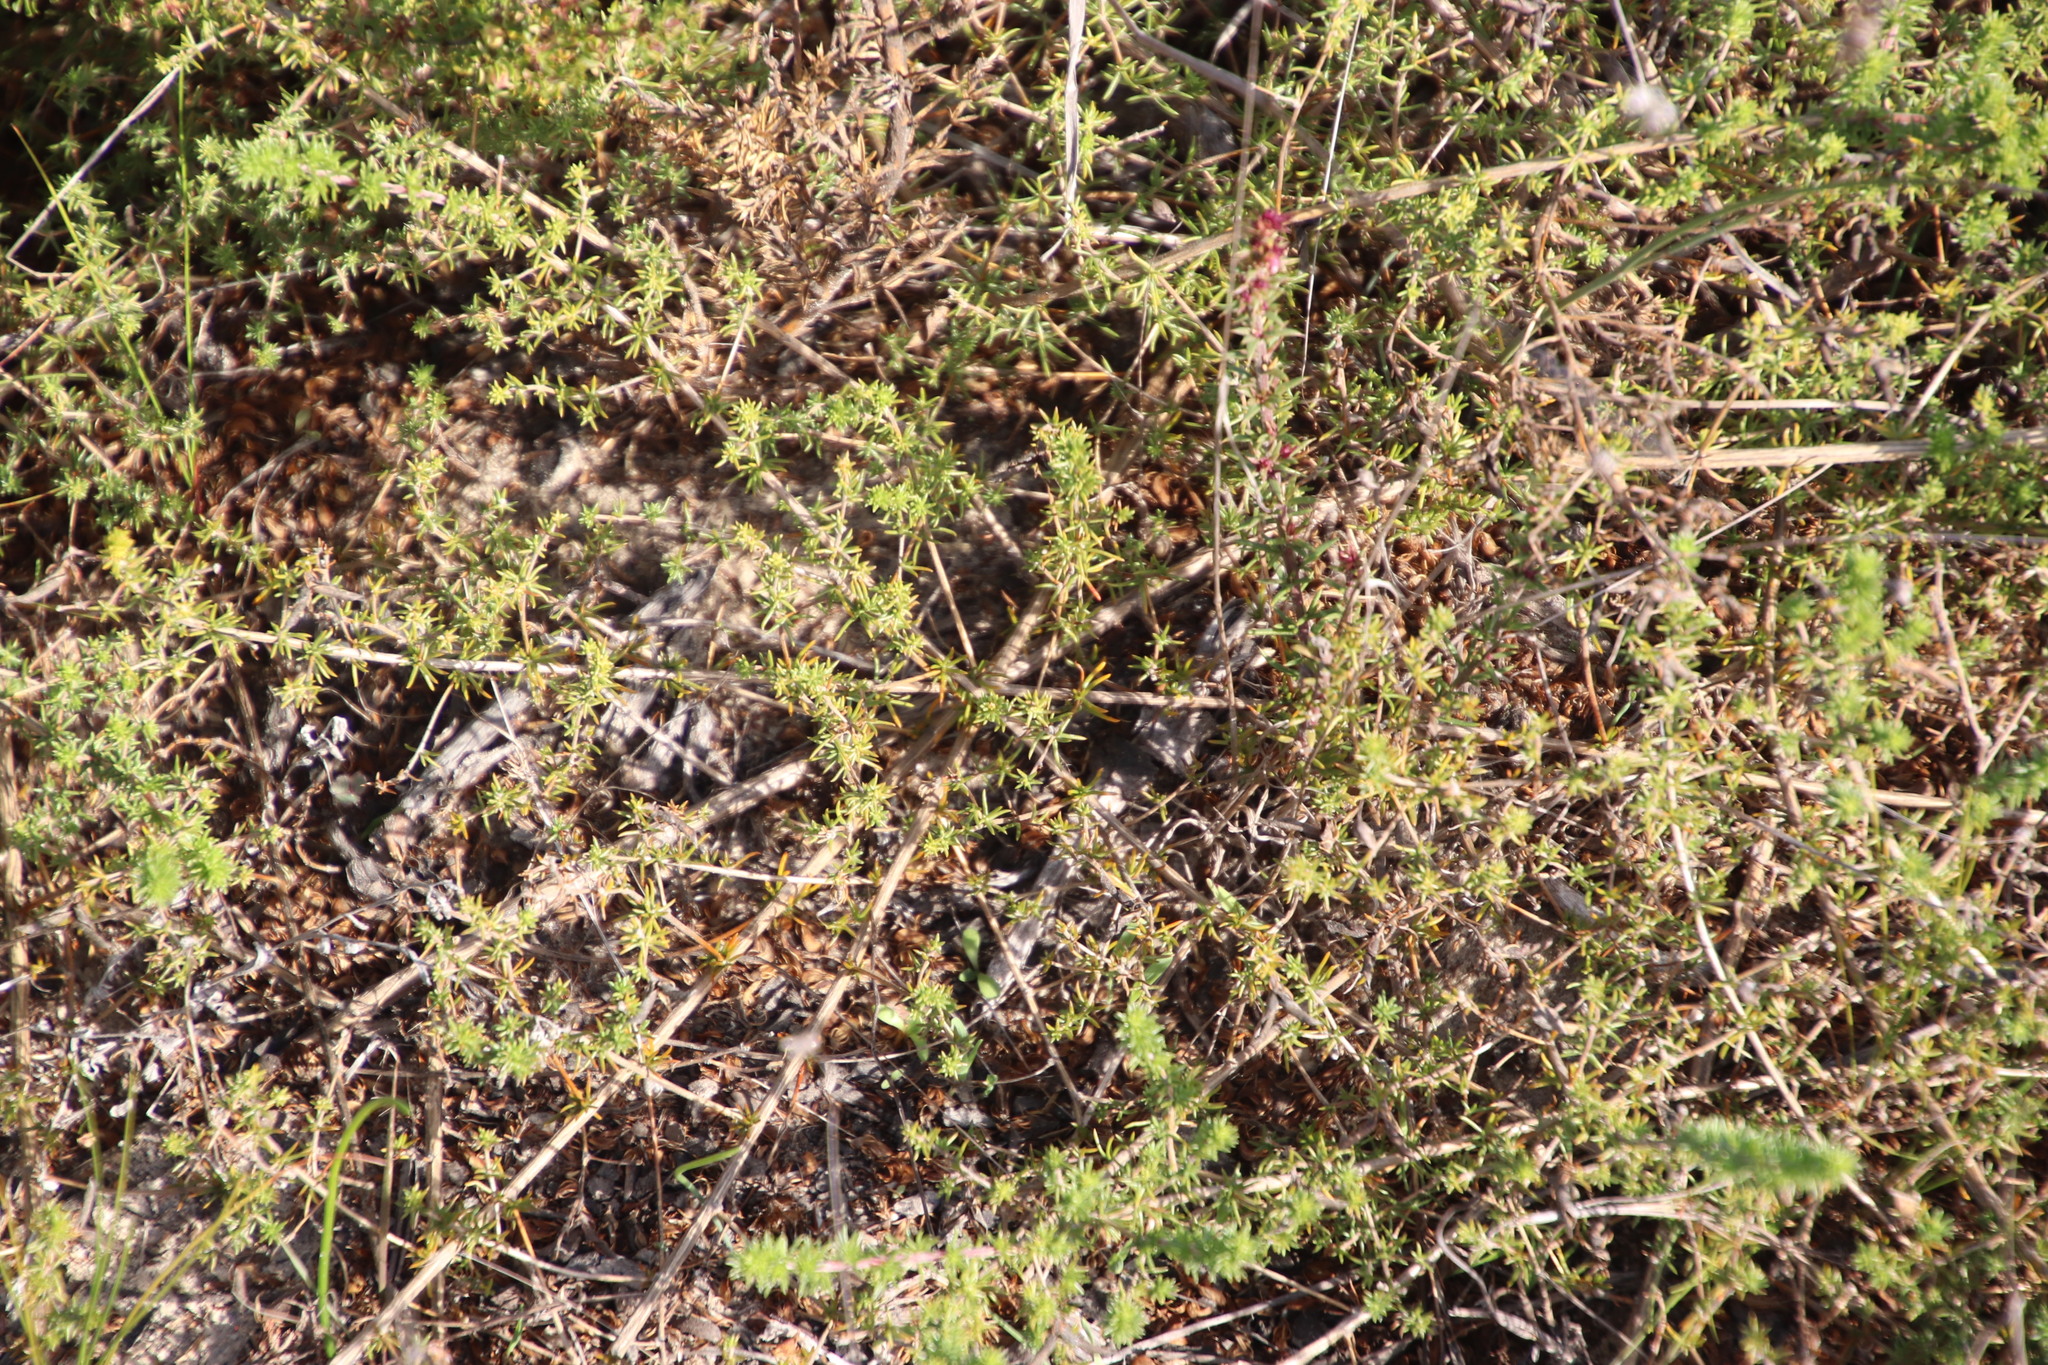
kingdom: Plantae
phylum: Tracheophyta
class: Magnoliopsida
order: Fabales
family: Fabaceae
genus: Aspalathus
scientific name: Aspalathus retroflexa
